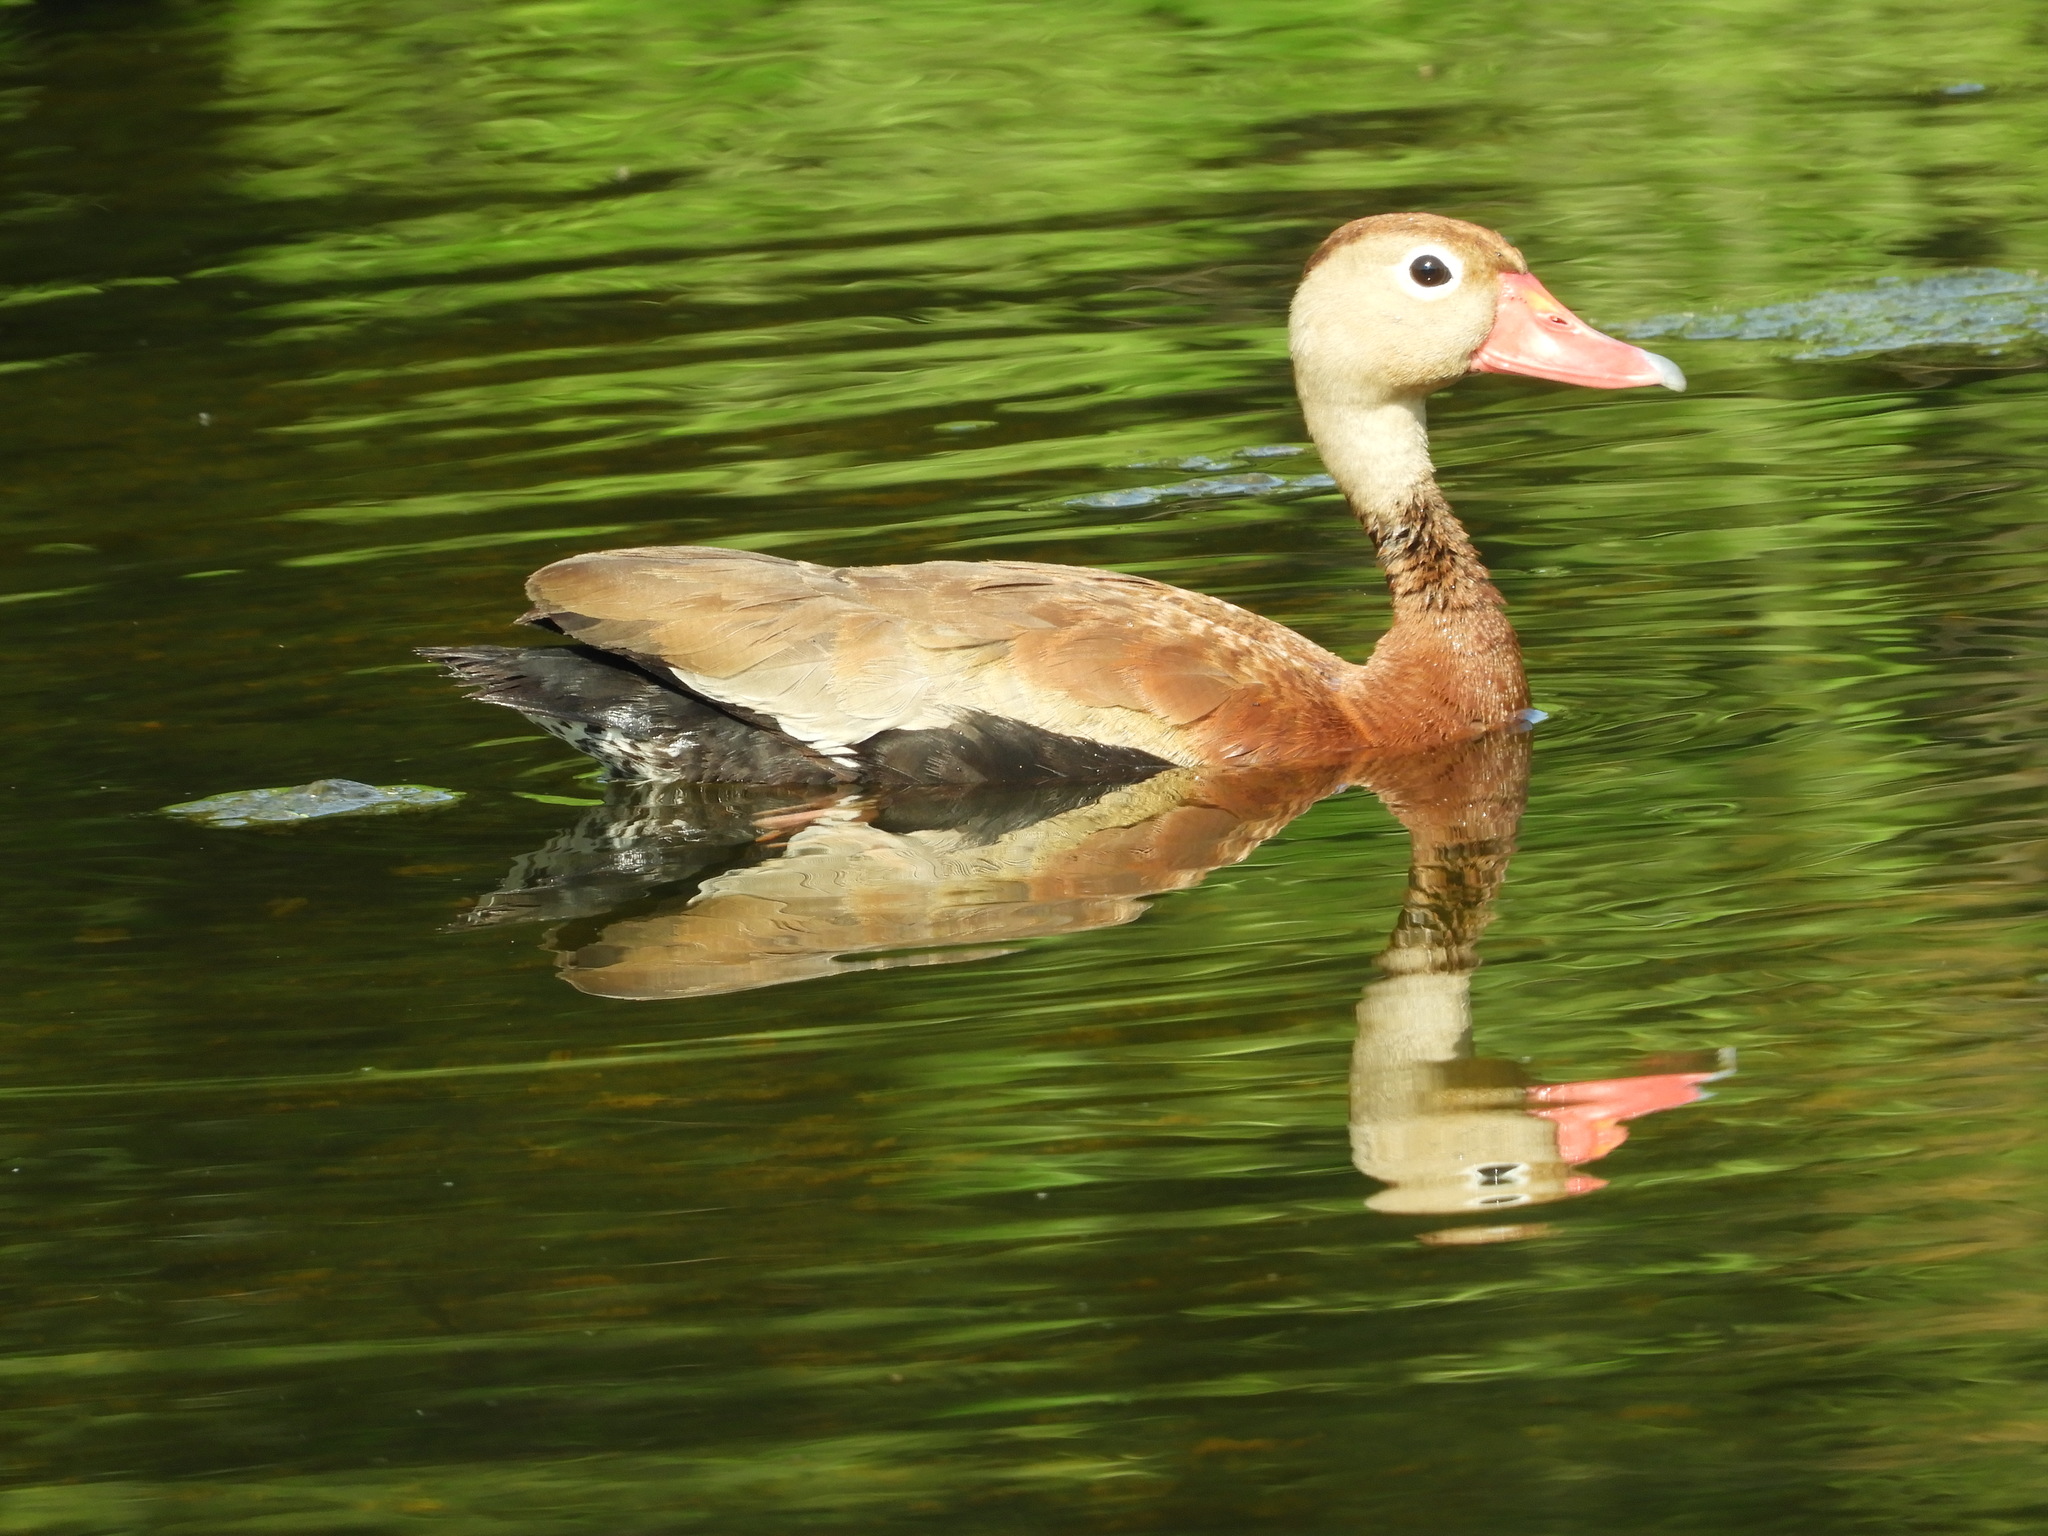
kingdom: Animalia
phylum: Chordata
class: Aves
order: Anseriformes
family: Anatidae
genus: Dendrocygna
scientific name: Dendrocygna autumnalis
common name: Black-bellied whistling duck
